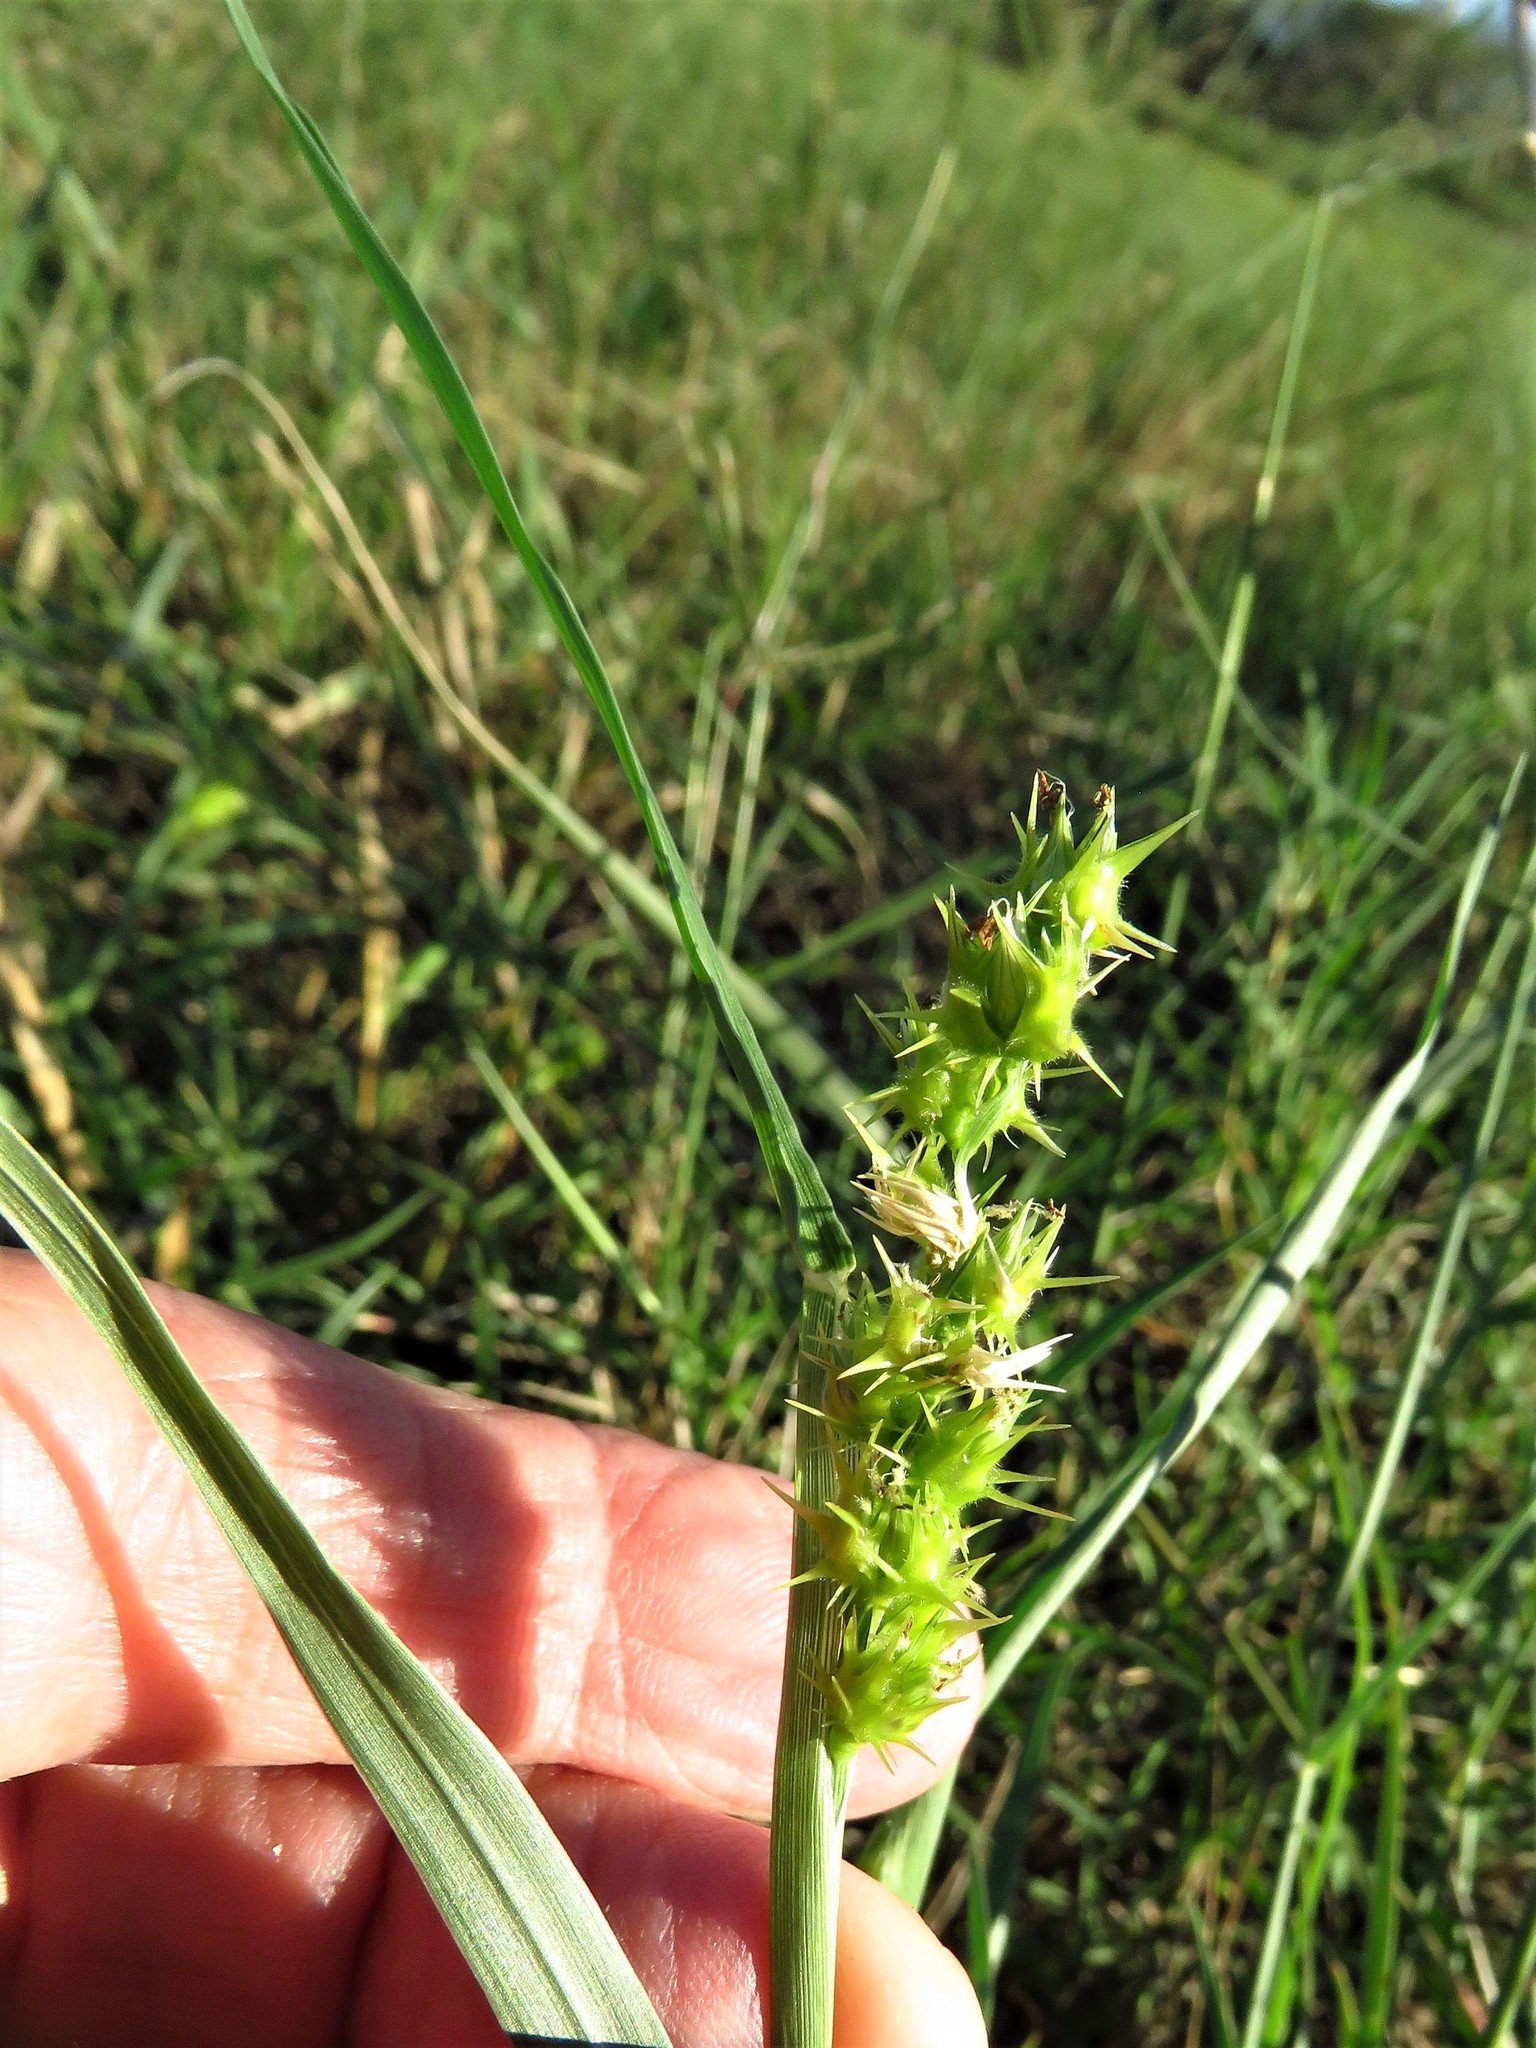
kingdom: Plantae
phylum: Tracheophyta
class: Liliopsida
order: Poales
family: Poaceae
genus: Cenchrus
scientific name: Cenchrus spinifex
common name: Coast sandbur
